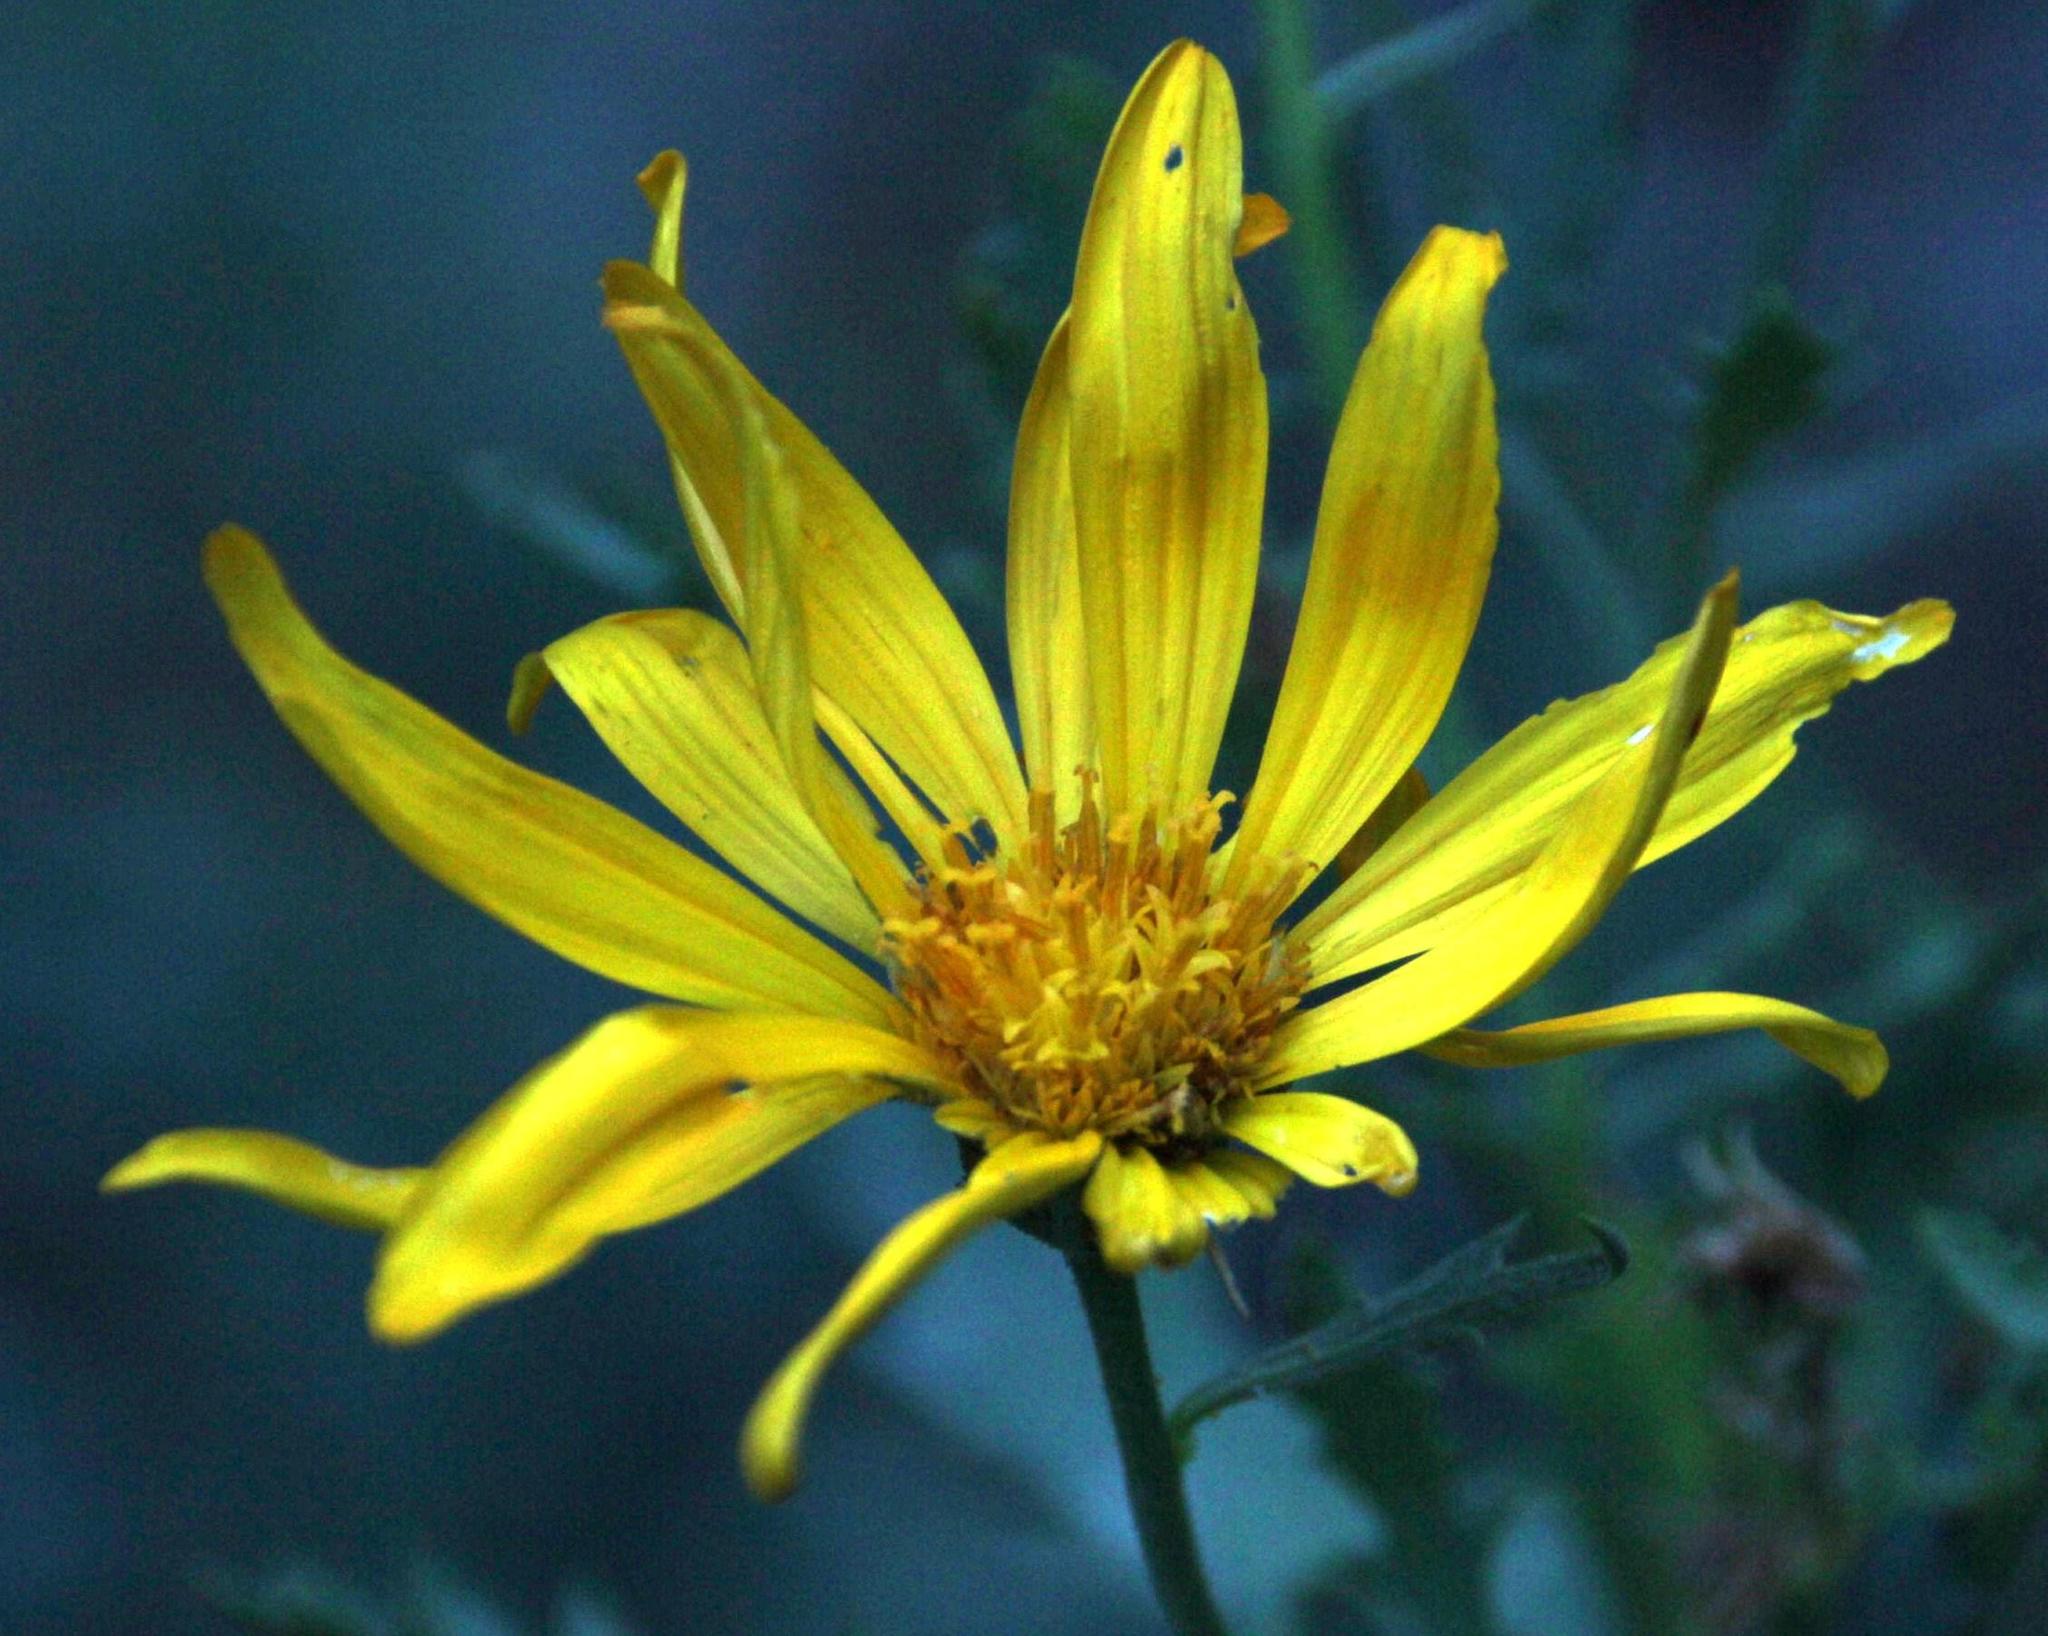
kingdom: Plantae
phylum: Tracheophyta
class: Magnoliopsida
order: Asterales
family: Asteraceae
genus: Dimorphotheca
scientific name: Dimorphotheca chrysanthemifolia
